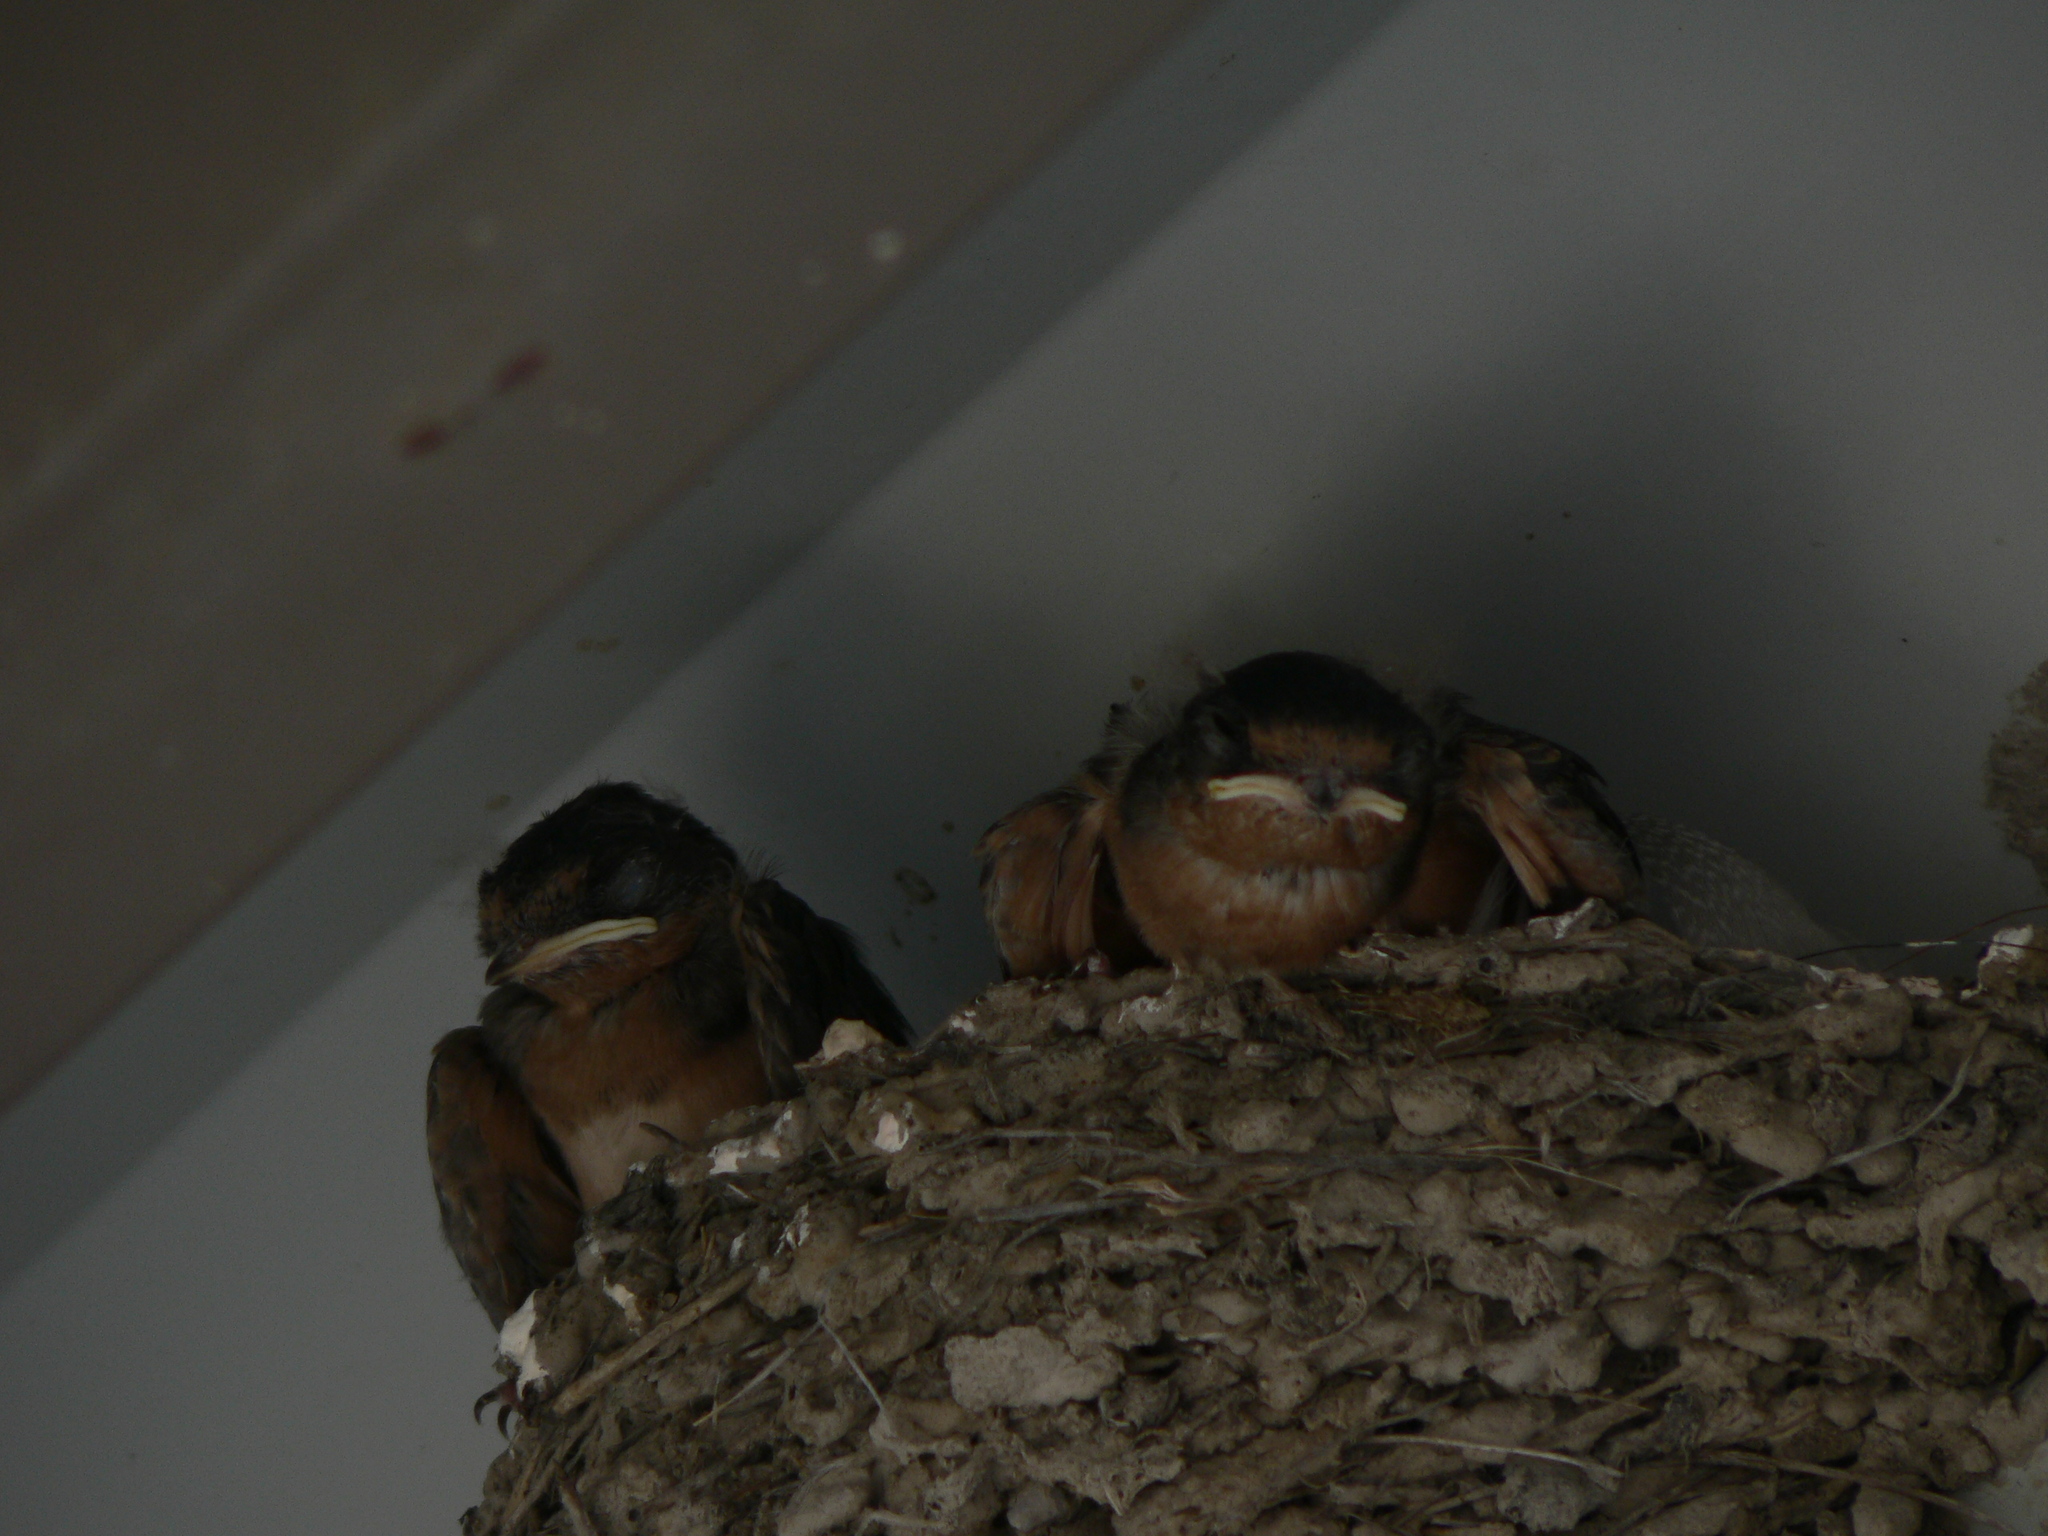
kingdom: Animalia
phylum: Chordata
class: Aves
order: Passeriformes
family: Hirundinidae
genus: Hirundo
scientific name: Hirundo rustica
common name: Barn swallow
